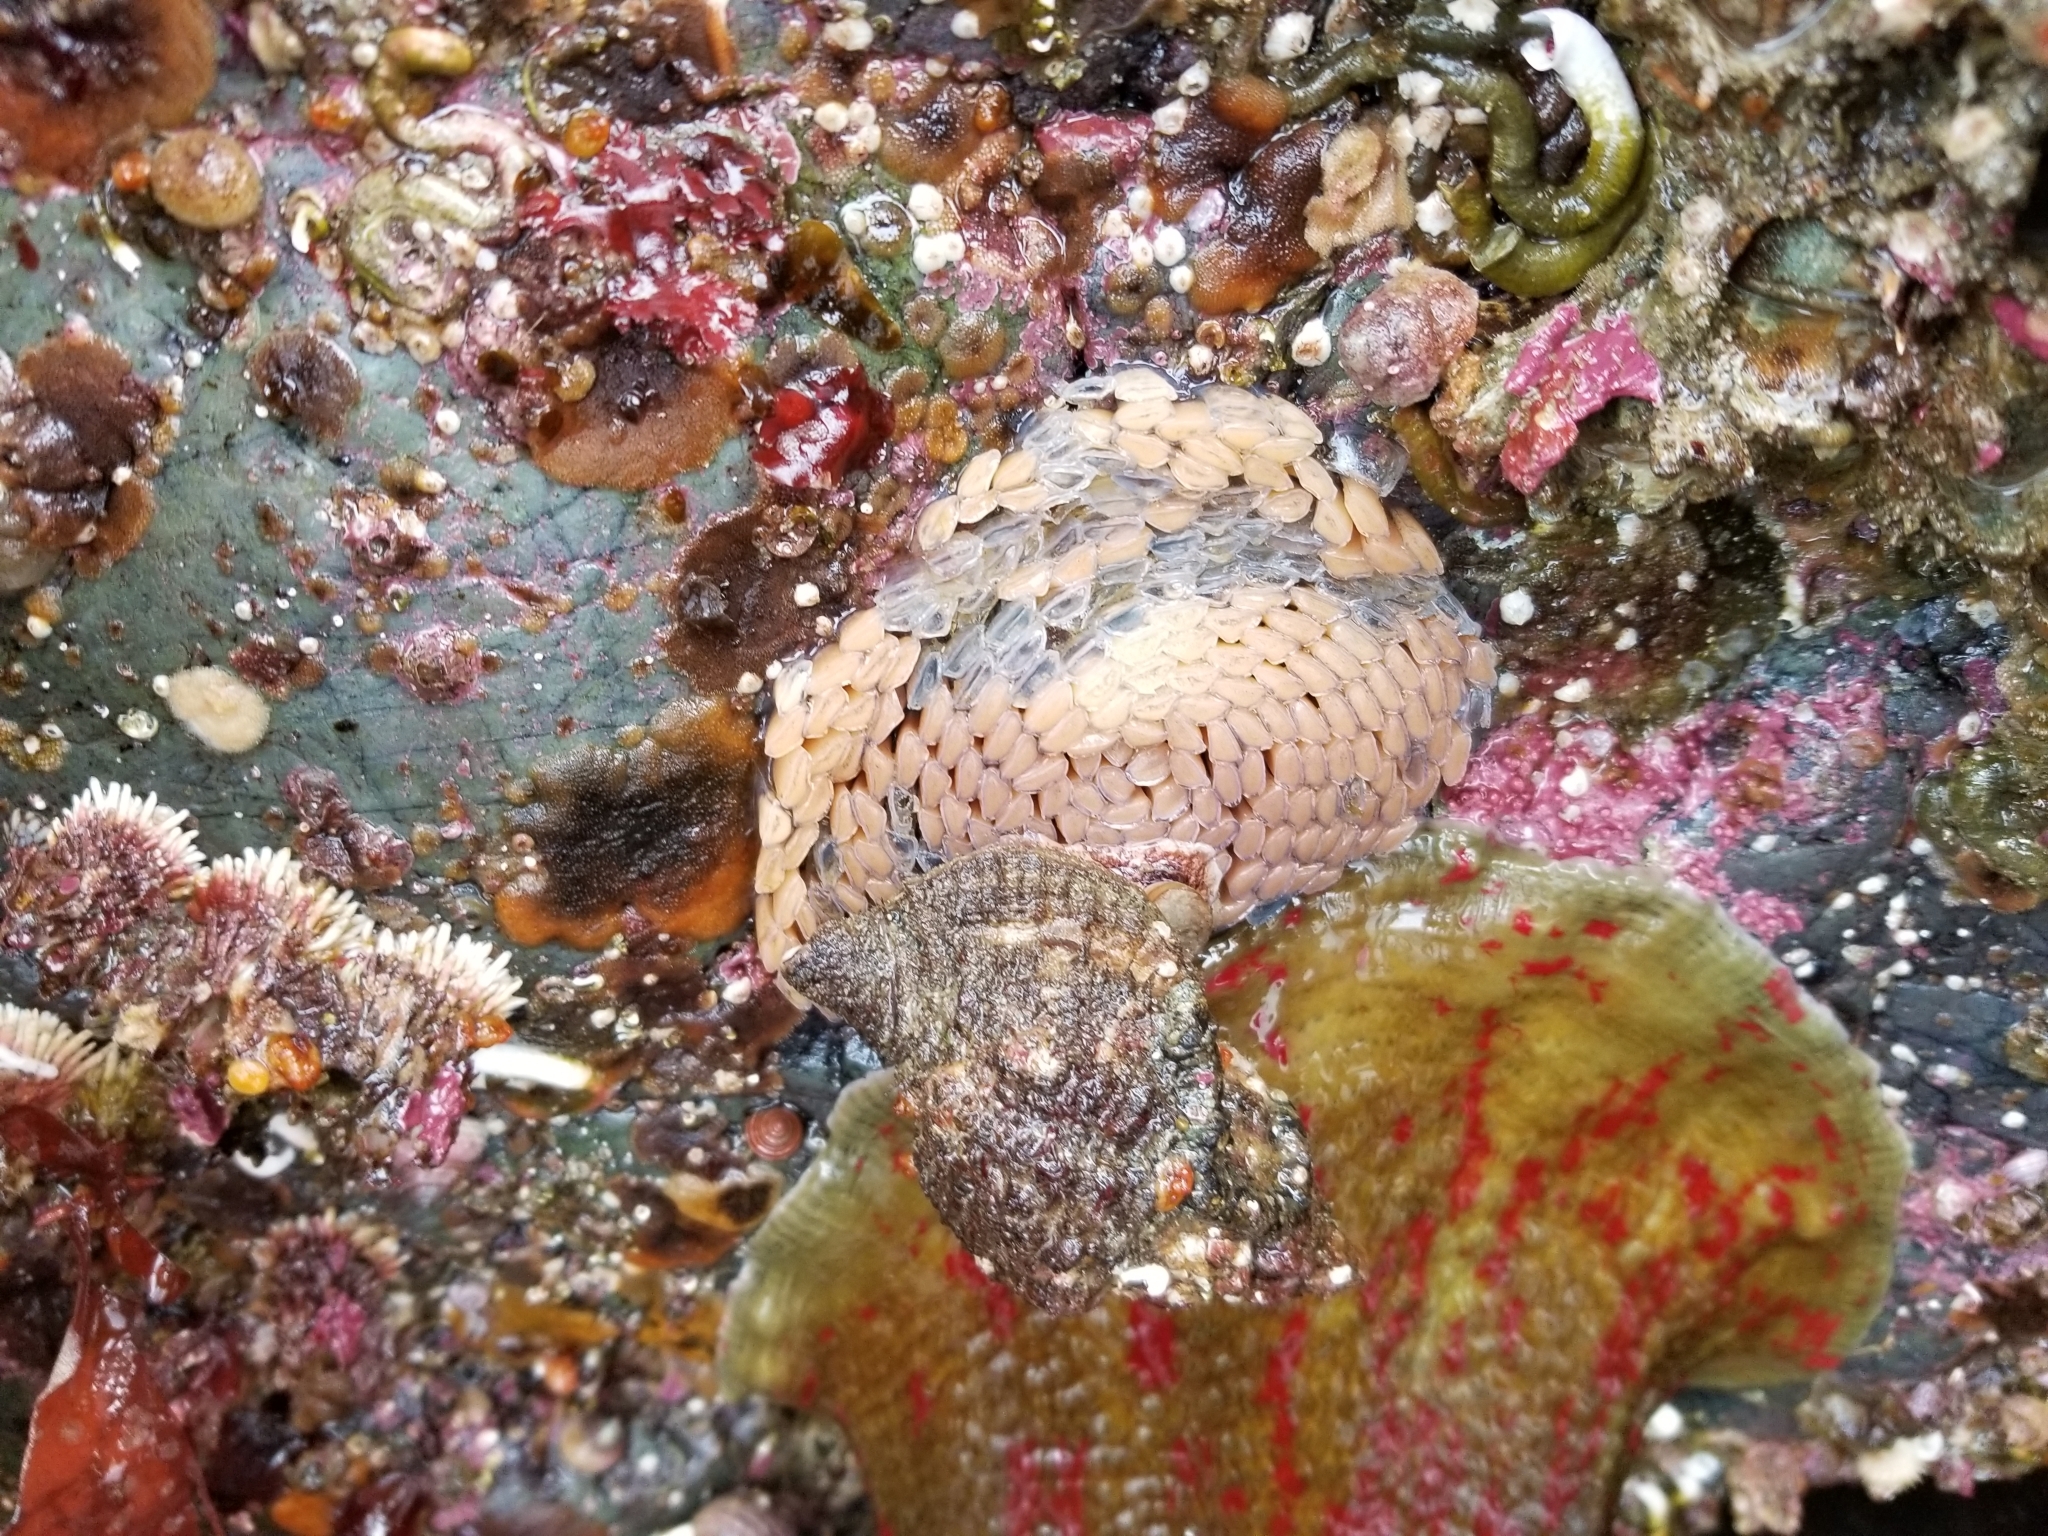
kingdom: Animalia
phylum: Mollusca
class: Gastropoda
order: Littorinimorpha
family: Cymatiidae
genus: Fusitriton
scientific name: Fusitriton oregonensis
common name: Oregon hairy triton
